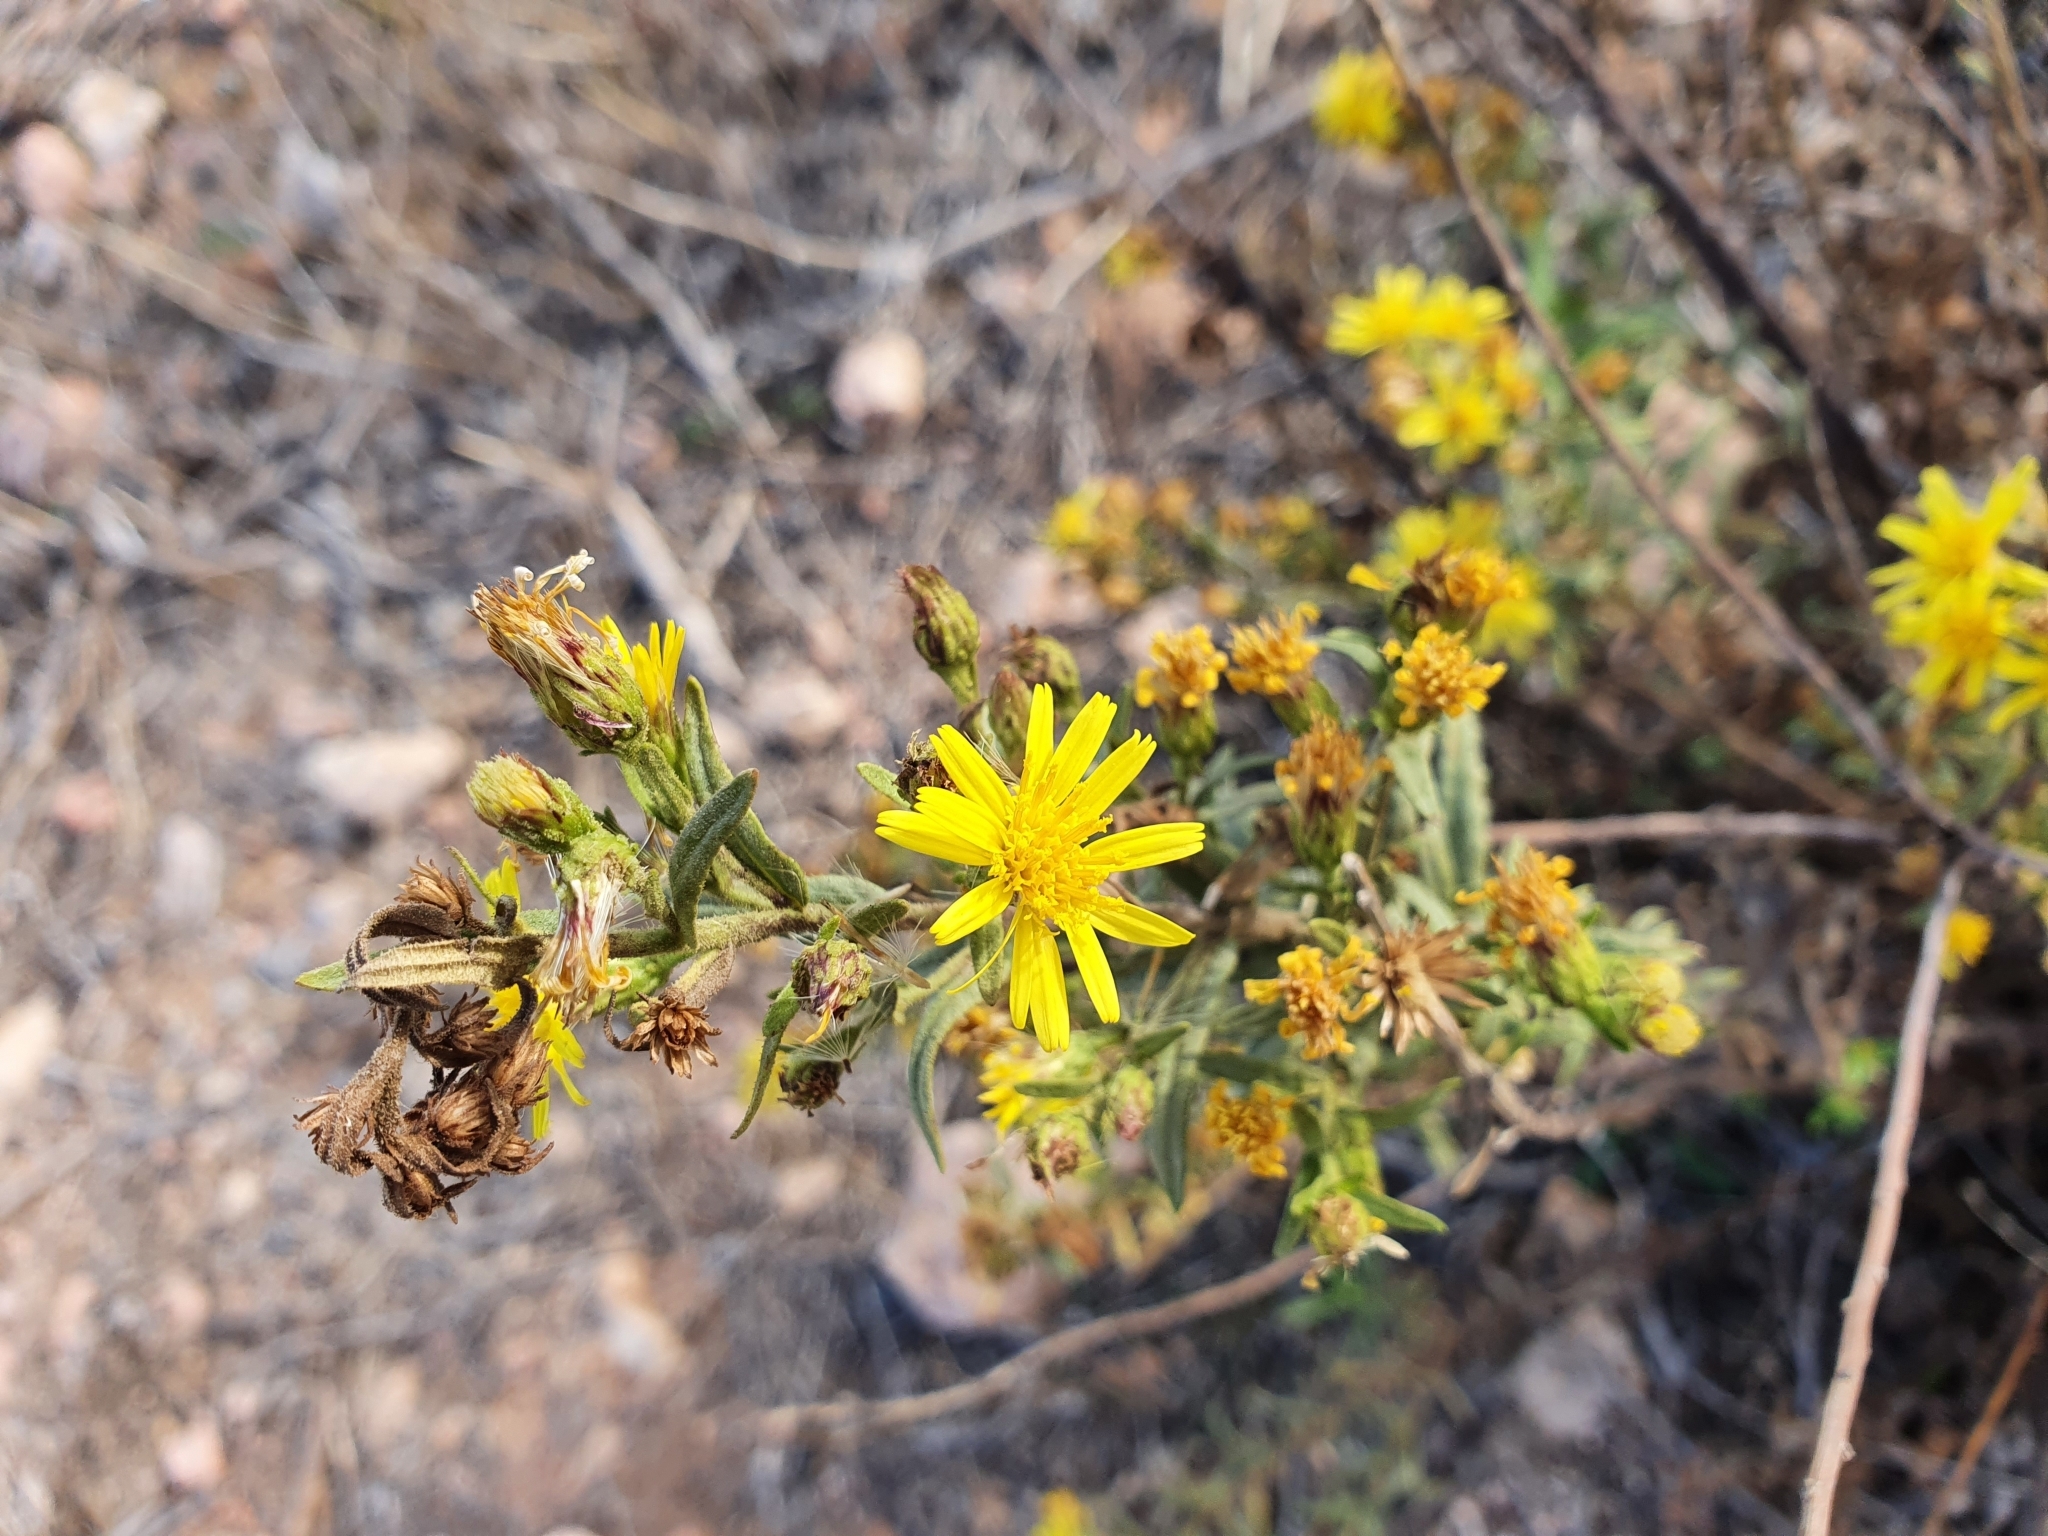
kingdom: Plantae
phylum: Tracheophyta
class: Magnoliopsida
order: Asterales
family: Asteraceae
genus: Dittrichia
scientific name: Dittrichia viscosa
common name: Woody fleabane
